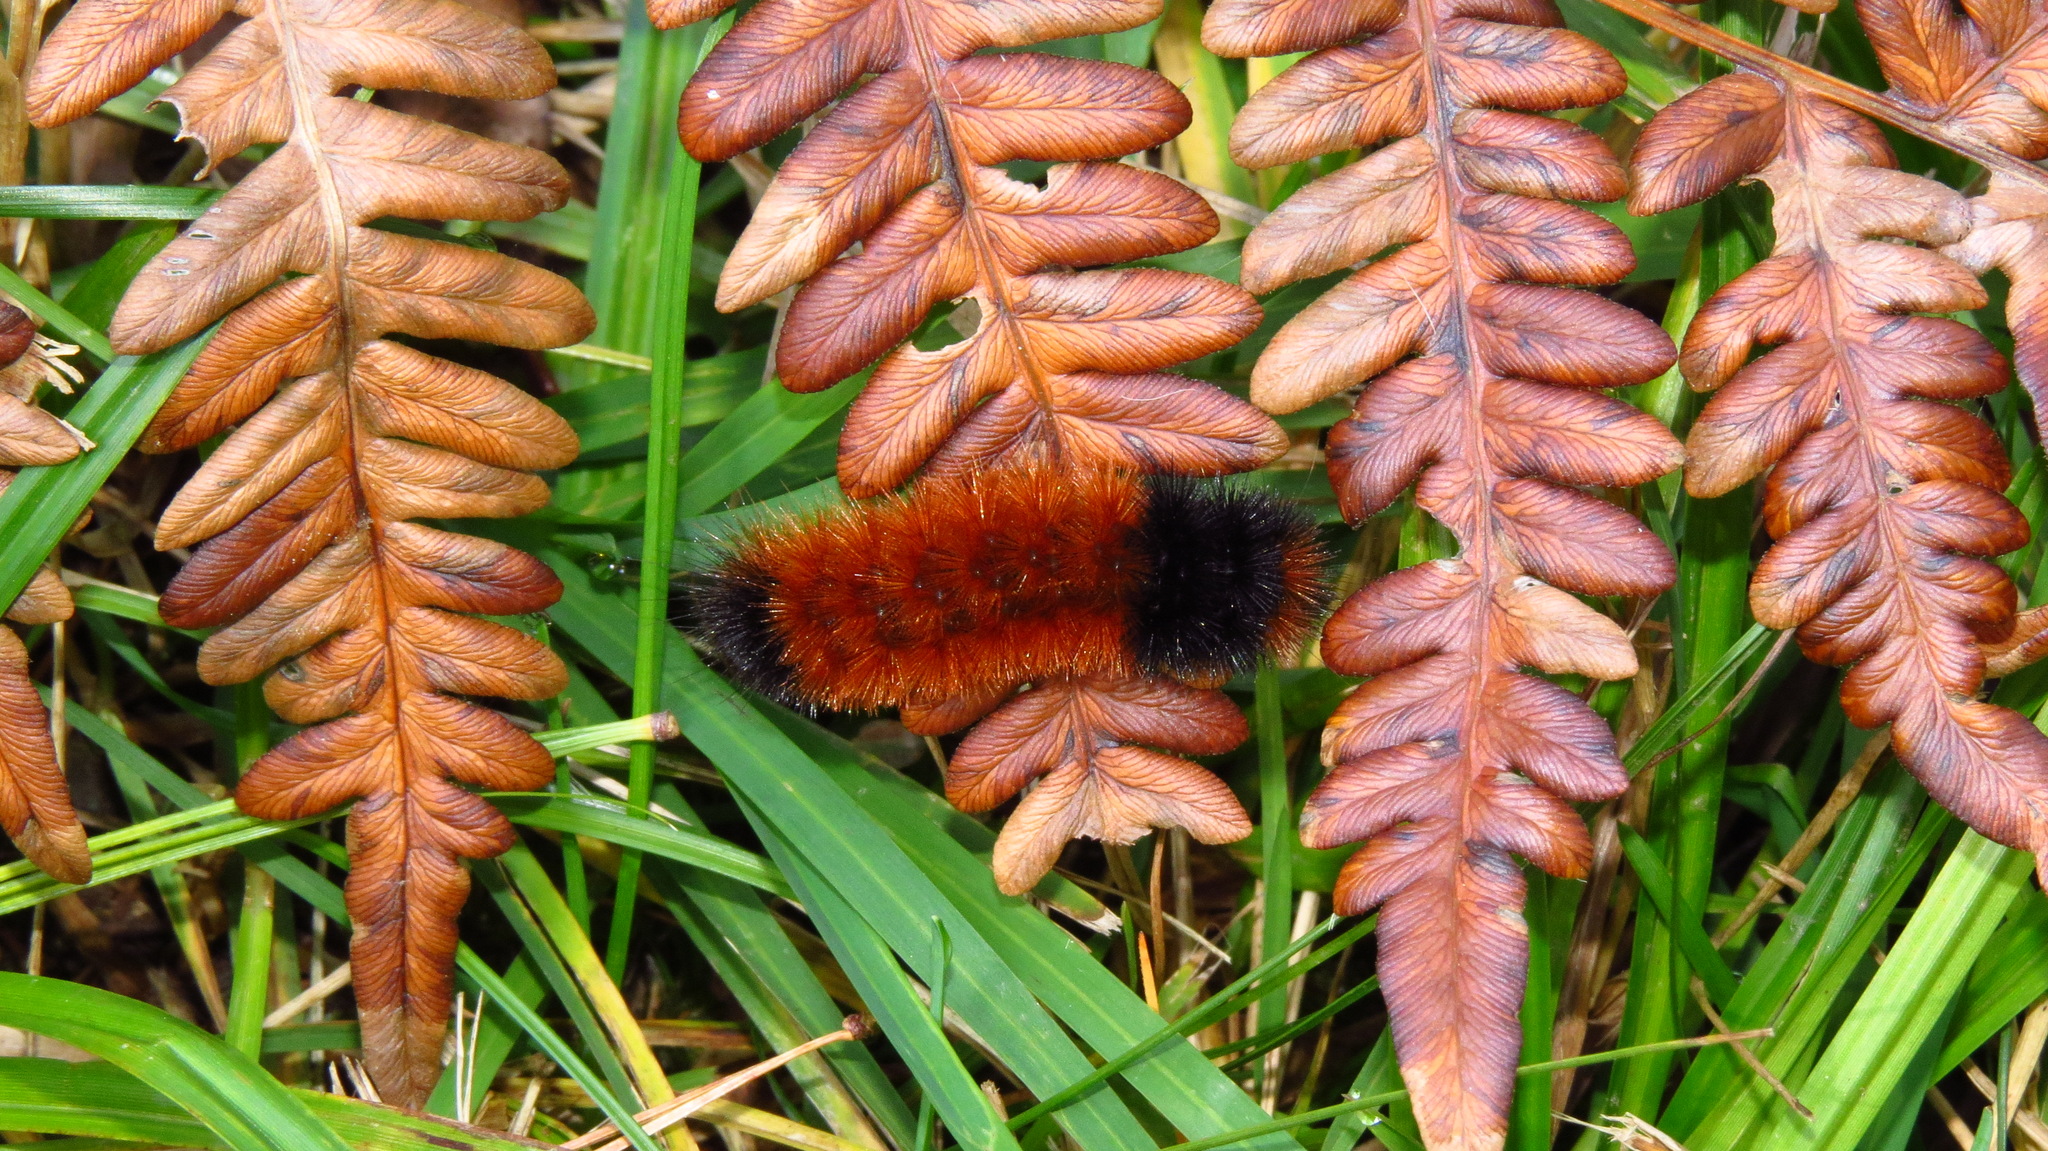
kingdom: Animalia
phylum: Arthropoda
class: Insecta
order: Lepidoptera
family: Erebidae
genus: Pyrrharctia
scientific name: Pyrrharctia isabella
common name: Isabella tiger moth
